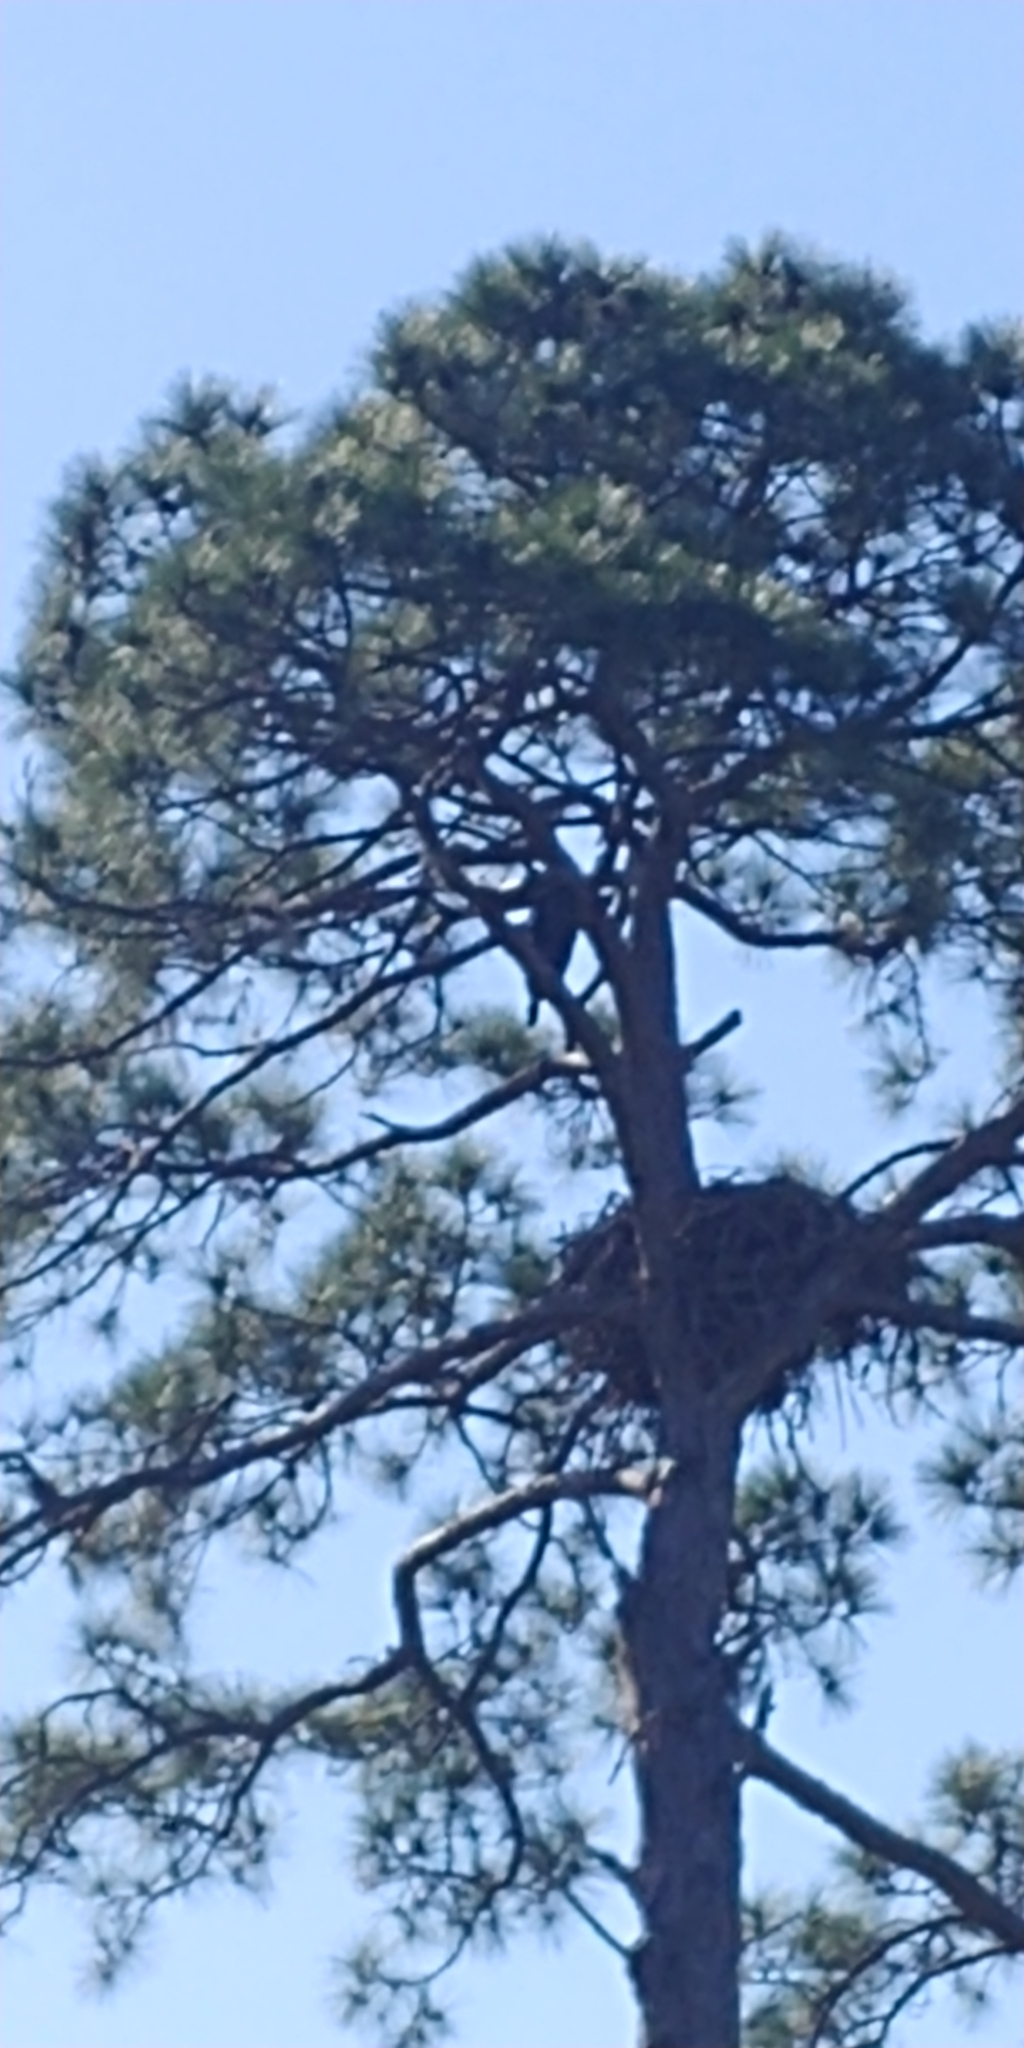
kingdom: Animalia
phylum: Chordata
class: Aves
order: Accipitriformes
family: Accipitridae
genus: Haliaeetus
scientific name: Haliaeetus leucocephalus
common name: Bald eagle
